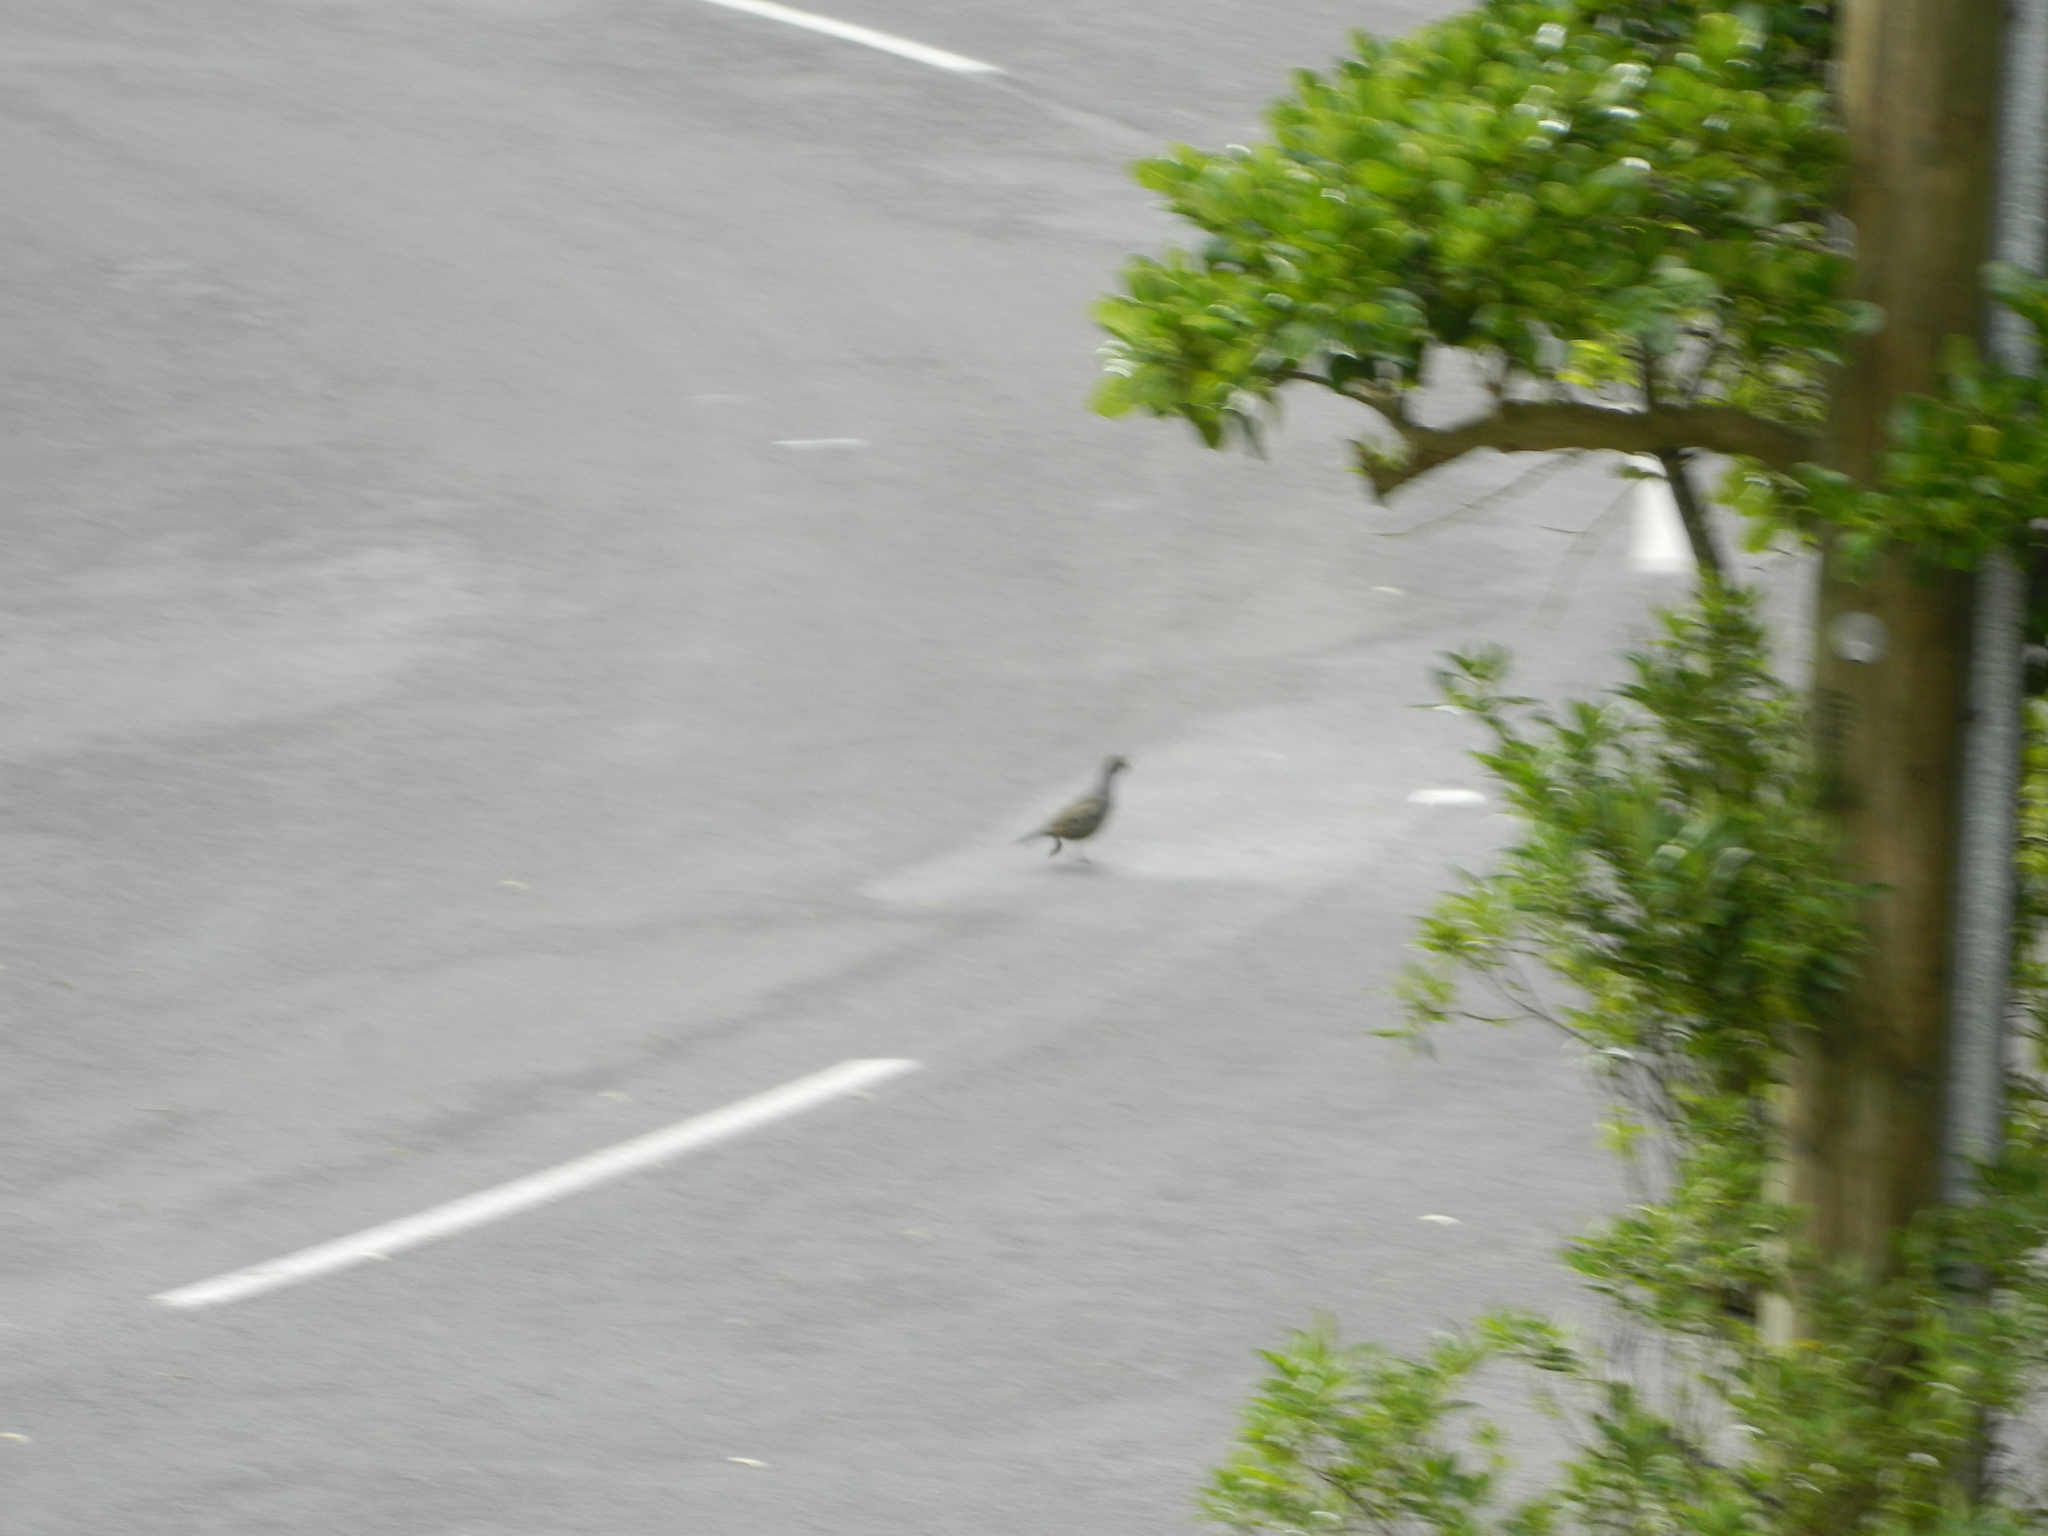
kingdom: Animalia
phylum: Chordata
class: Aves
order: Galliformes
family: Odontophoridae
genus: Callipepla
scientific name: Callipepla californica
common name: California quail
